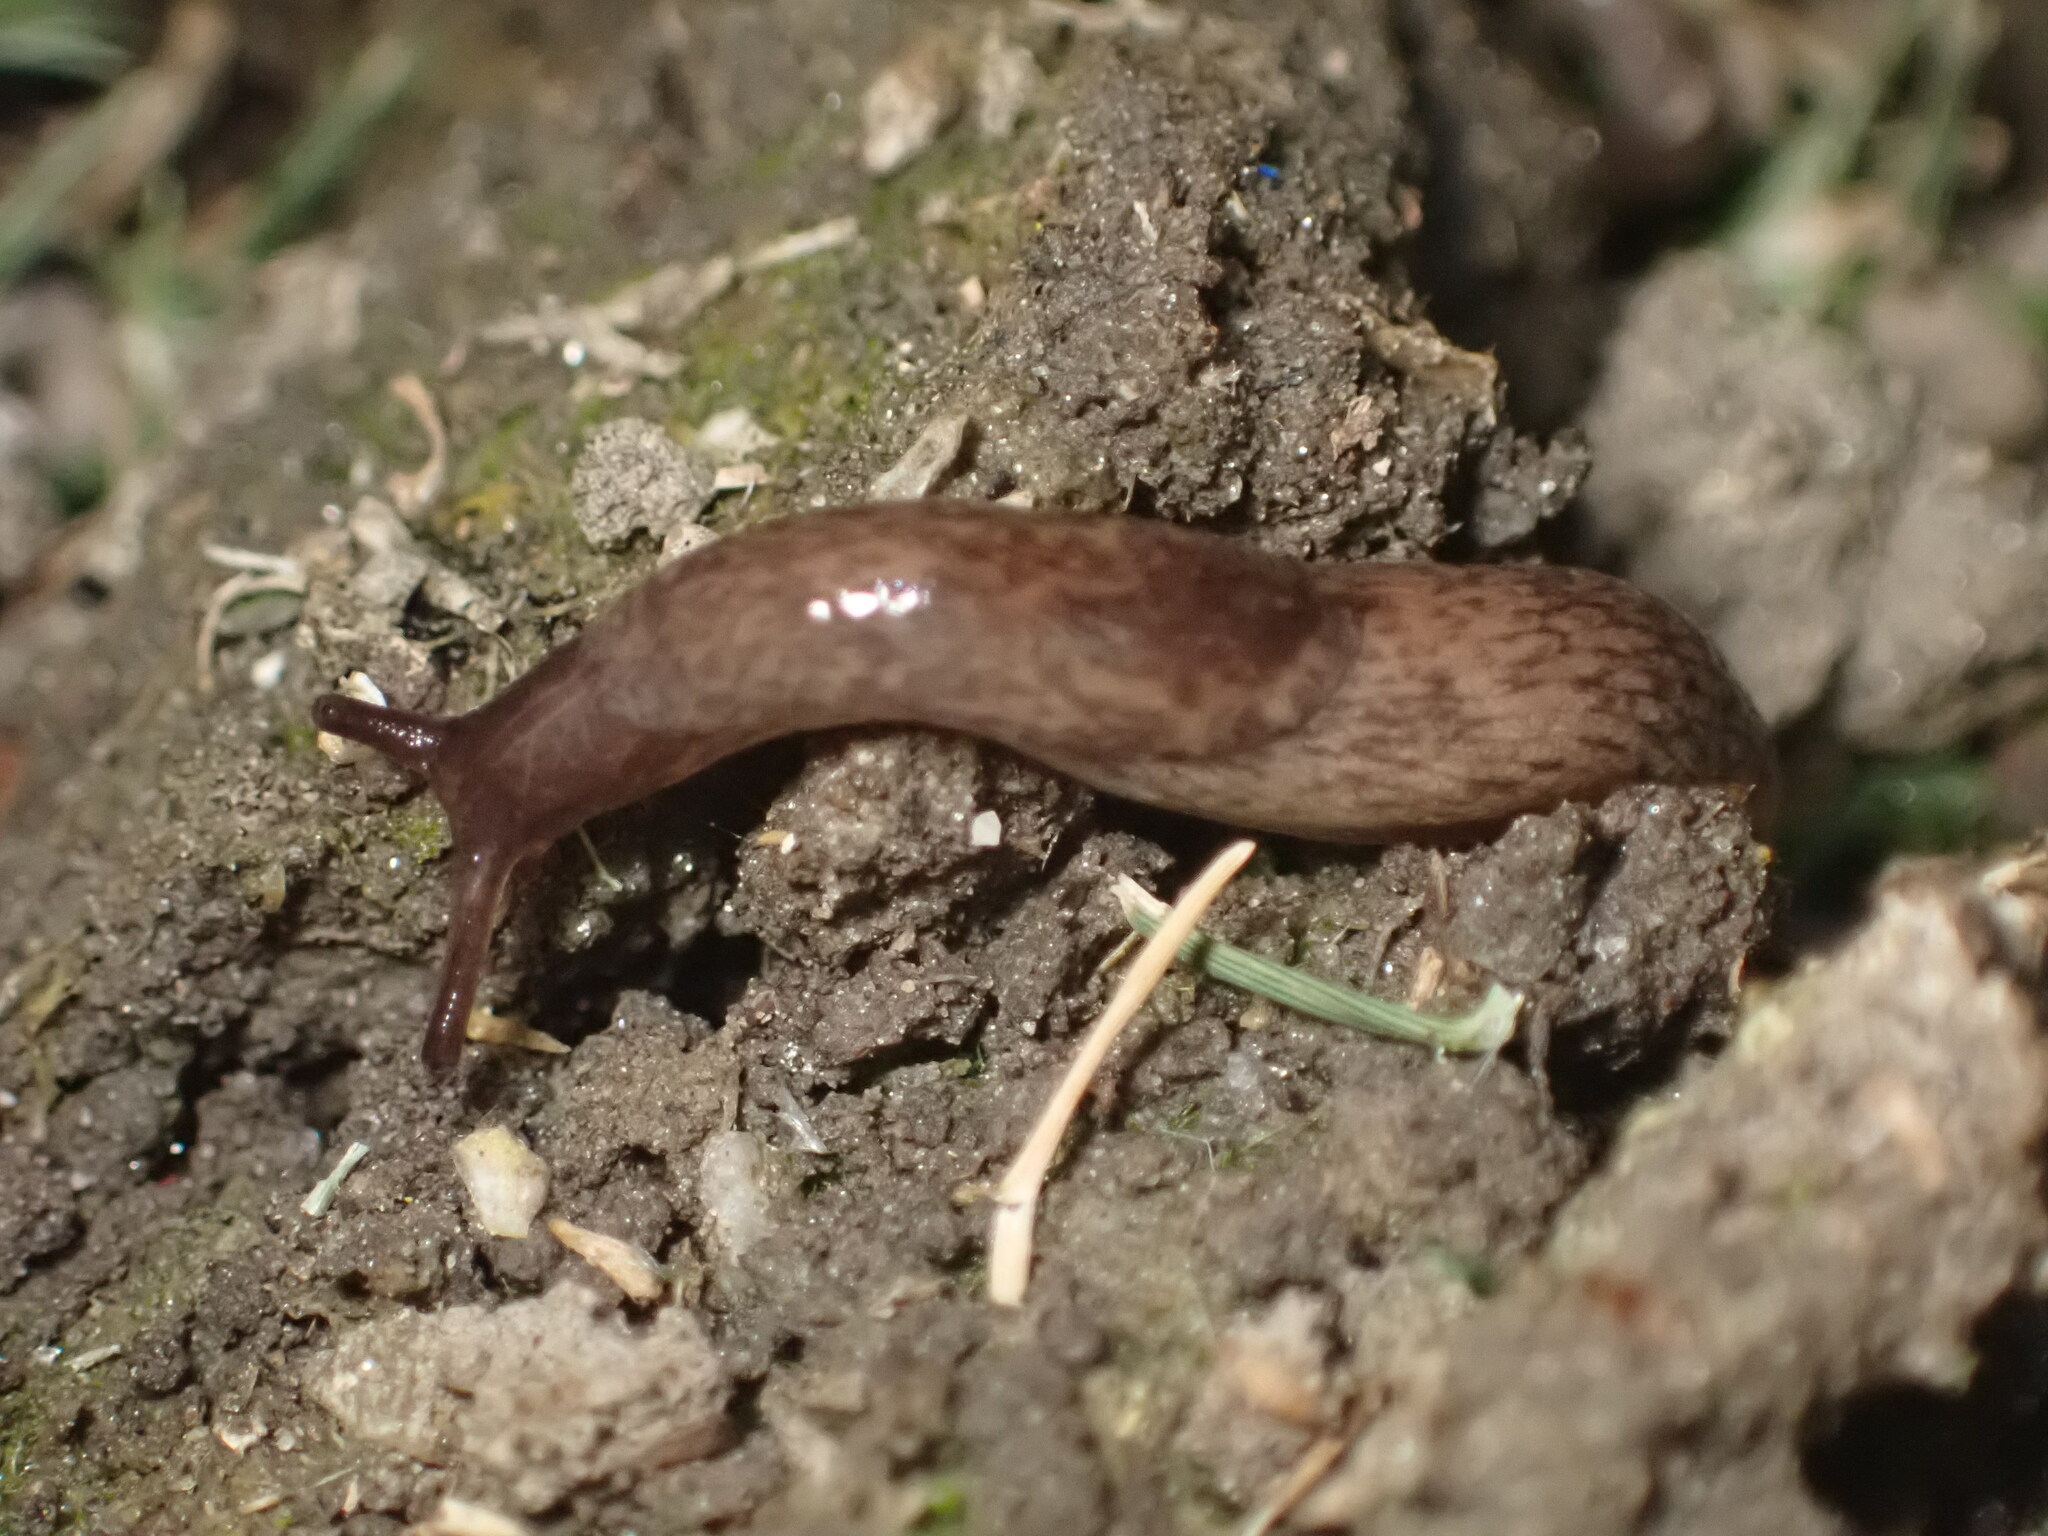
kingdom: Animalia
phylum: Mollusca
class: Gastropoda
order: Stylommatophora
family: Agriolimacidae
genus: Deroceras
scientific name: Deroceras reticulatum
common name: Gray field slug
